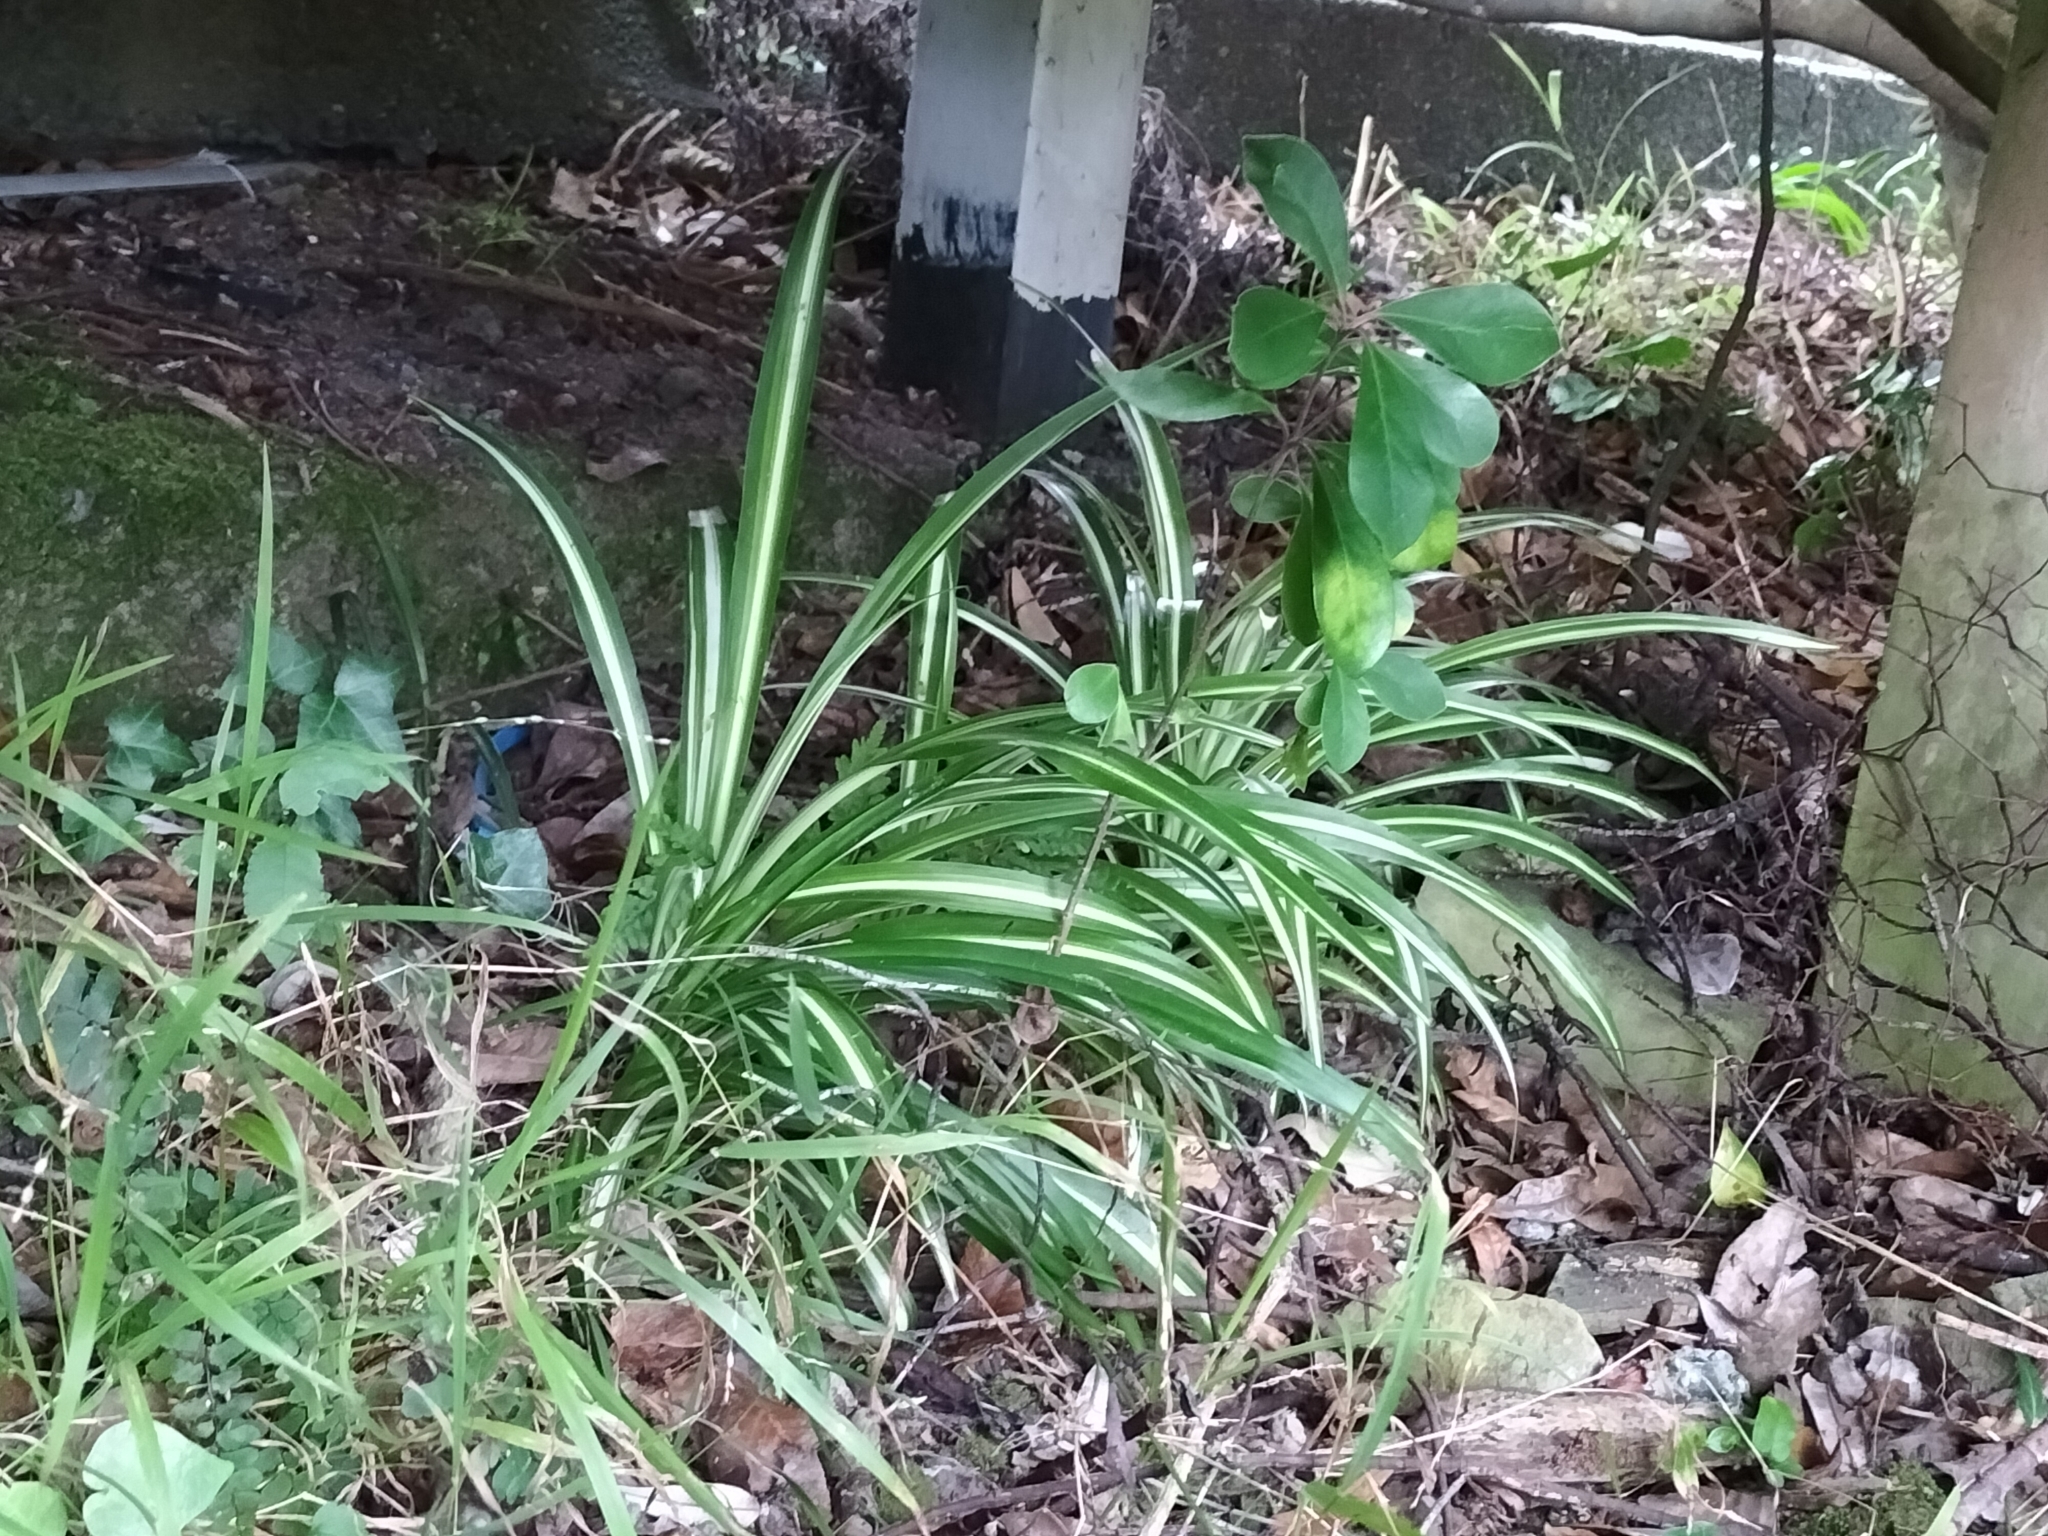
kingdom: Plantae
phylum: Tracheophyta
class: Liliopsida
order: Asparagales
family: Asparagaceae
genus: Chlorophytum
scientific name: Chlorophytum comosum
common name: Spider plant
